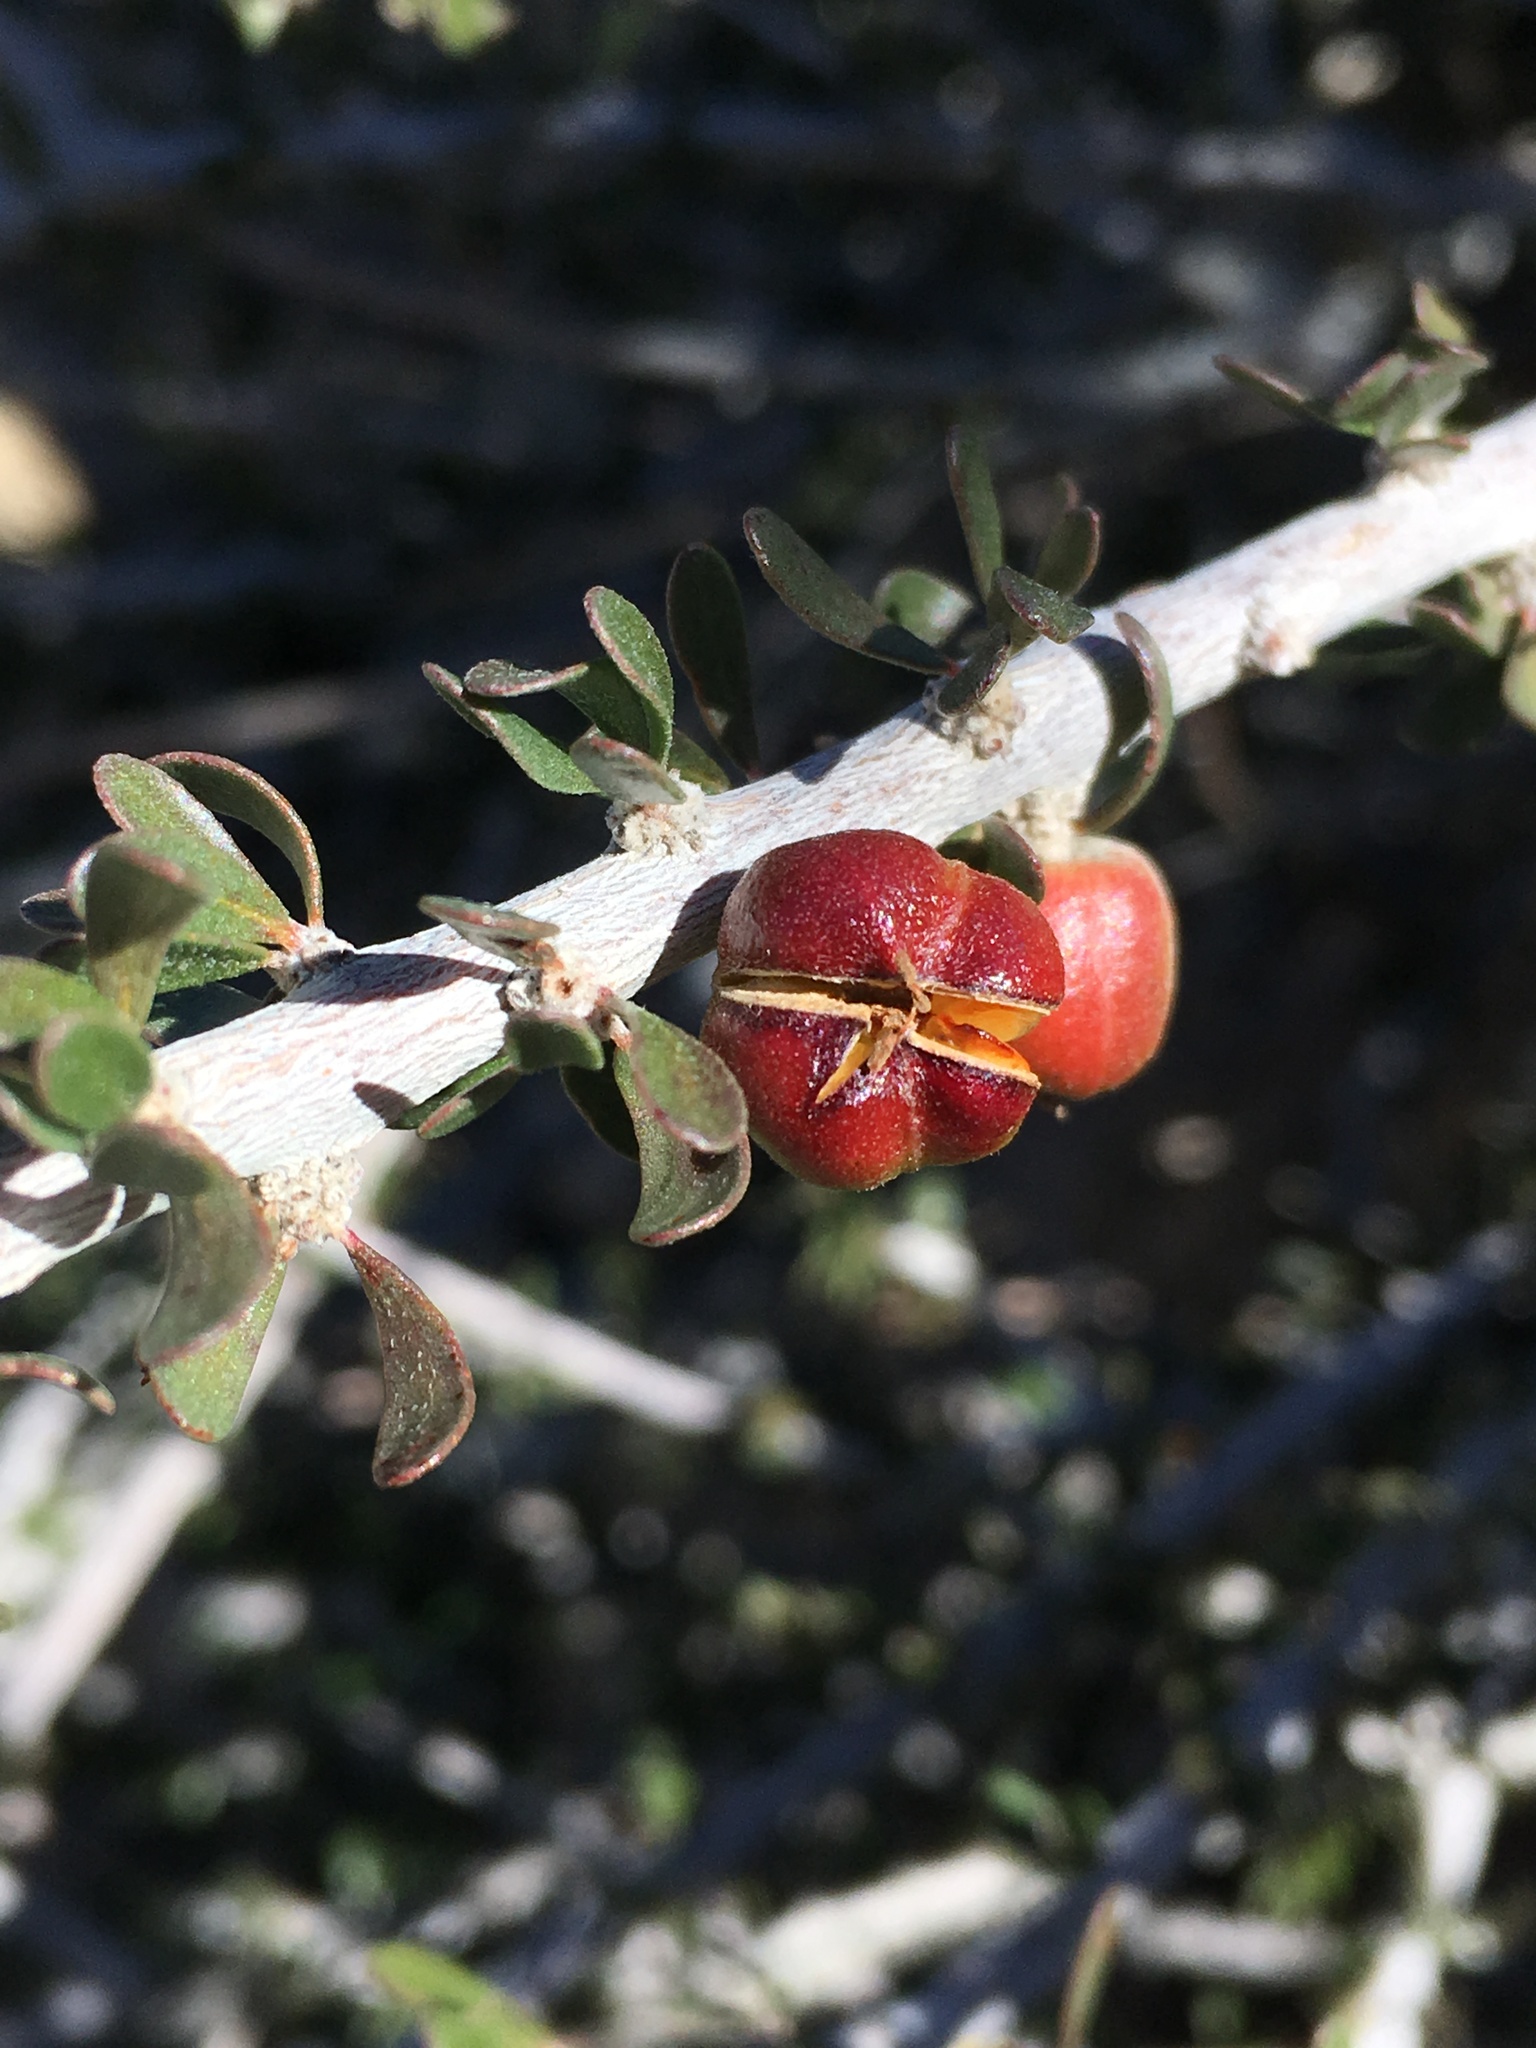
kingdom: Plantae
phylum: Tracheophyta
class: Magnoliopsida
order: Malpighiales
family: Picrodendraceae
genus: Tetracoccus
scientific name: Tetracoccus hallii
